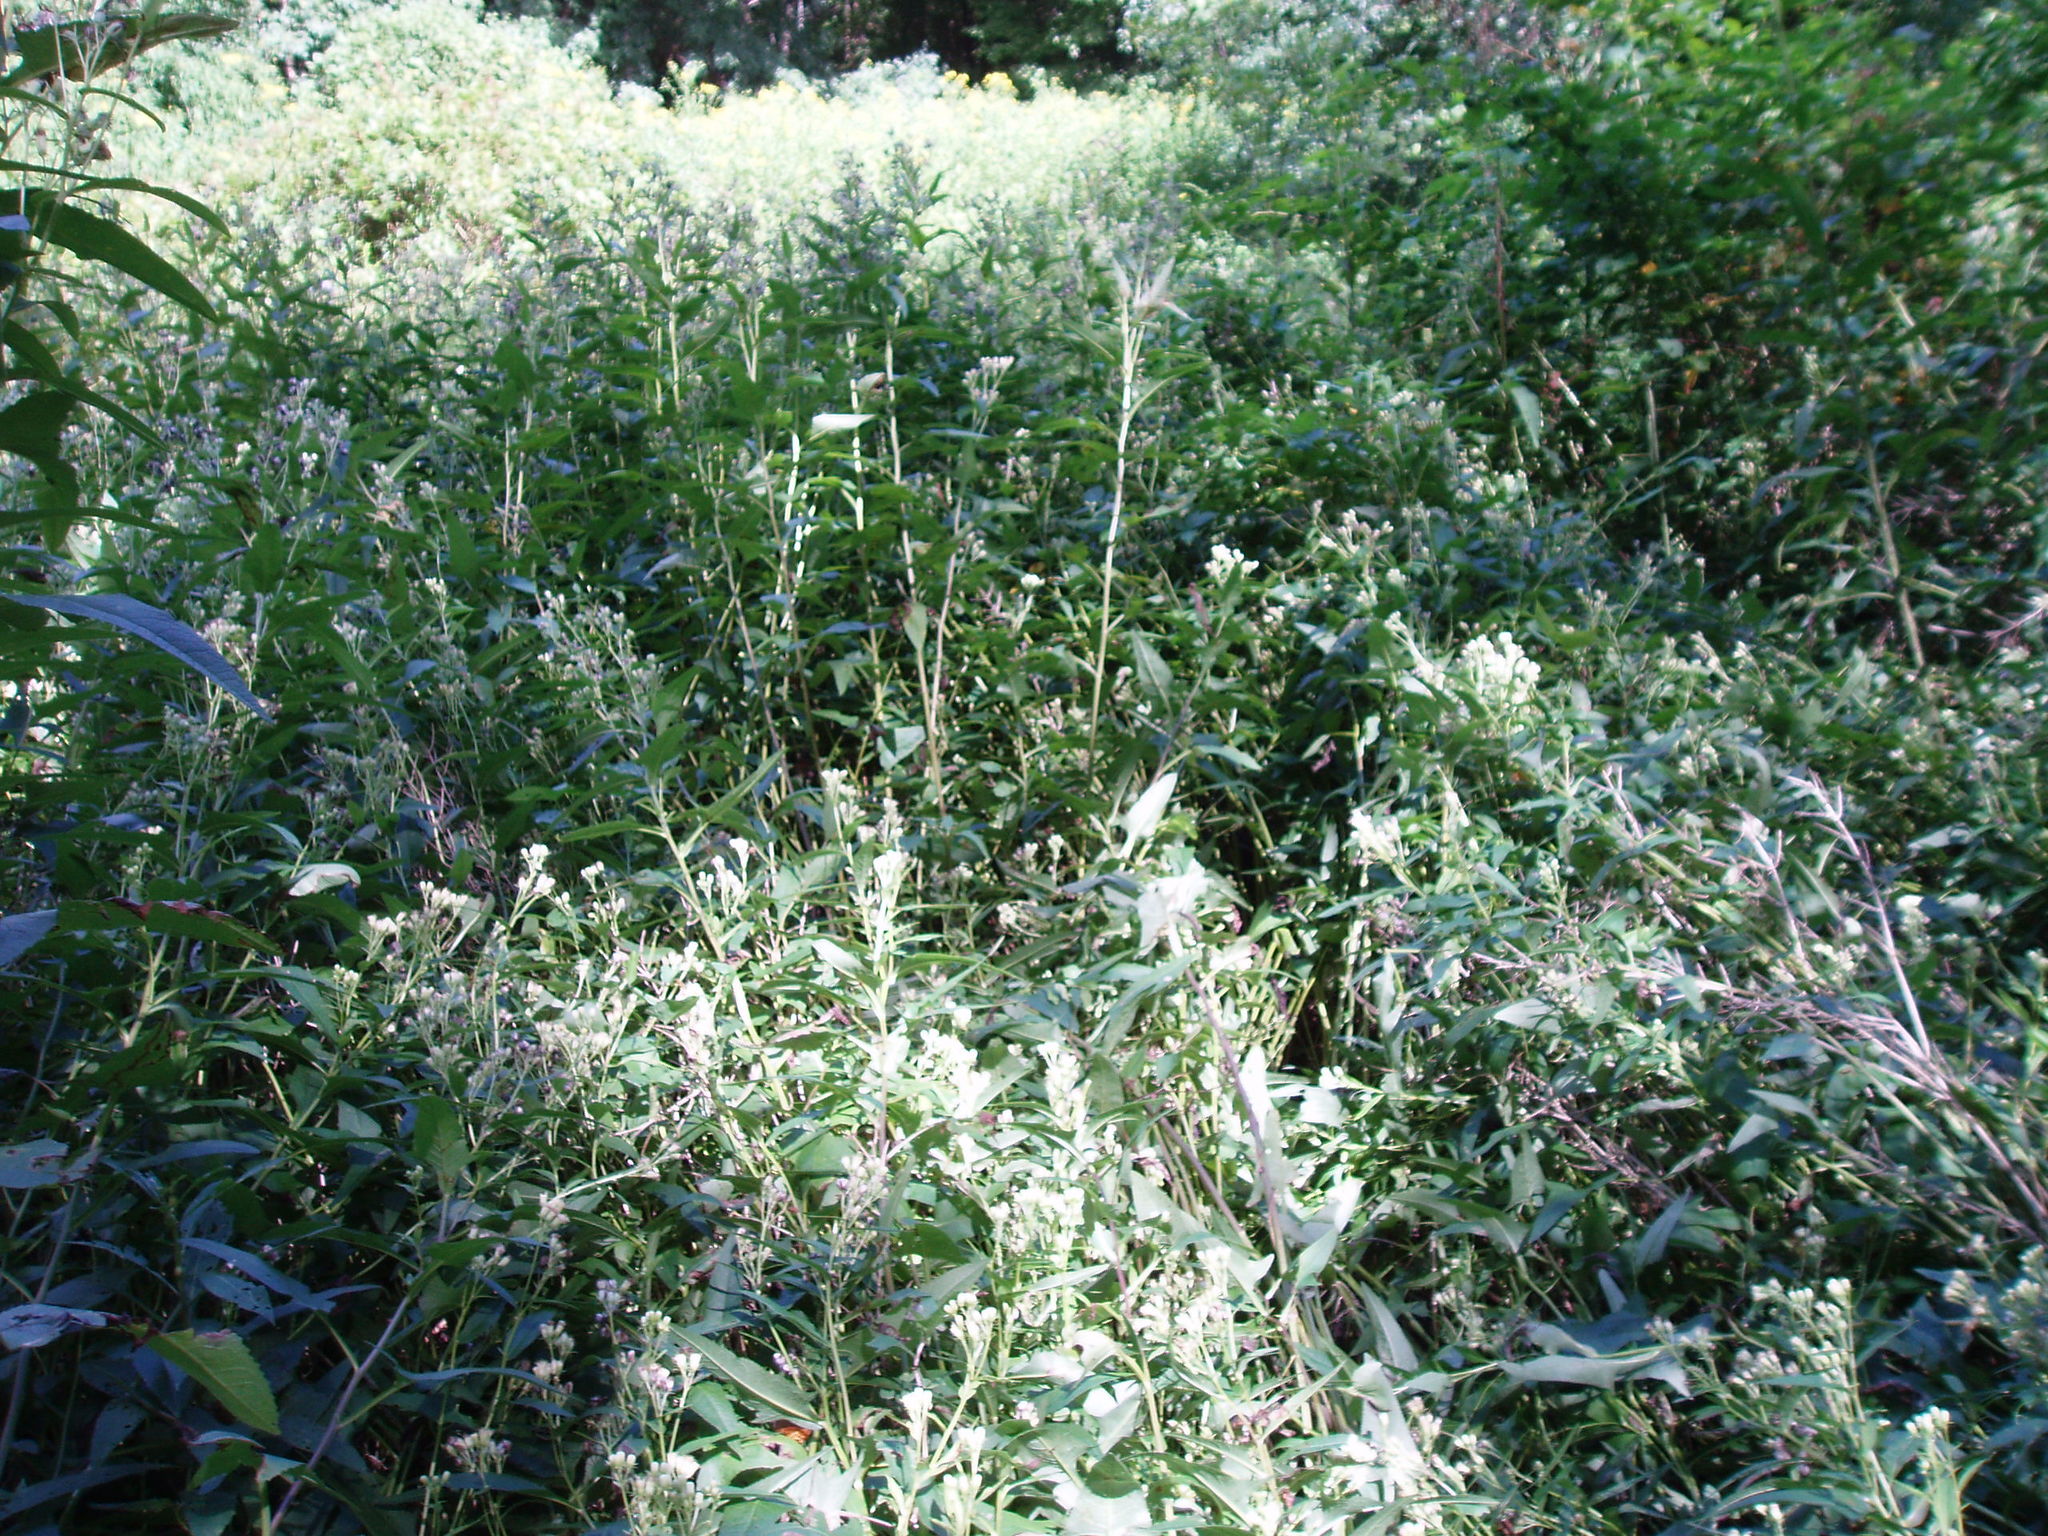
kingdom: Plantae
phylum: Tracheophyta
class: Magnoliopsida
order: Asterales
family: Asteraceae
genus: Hasteola
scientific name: Hasteola suaveolens
